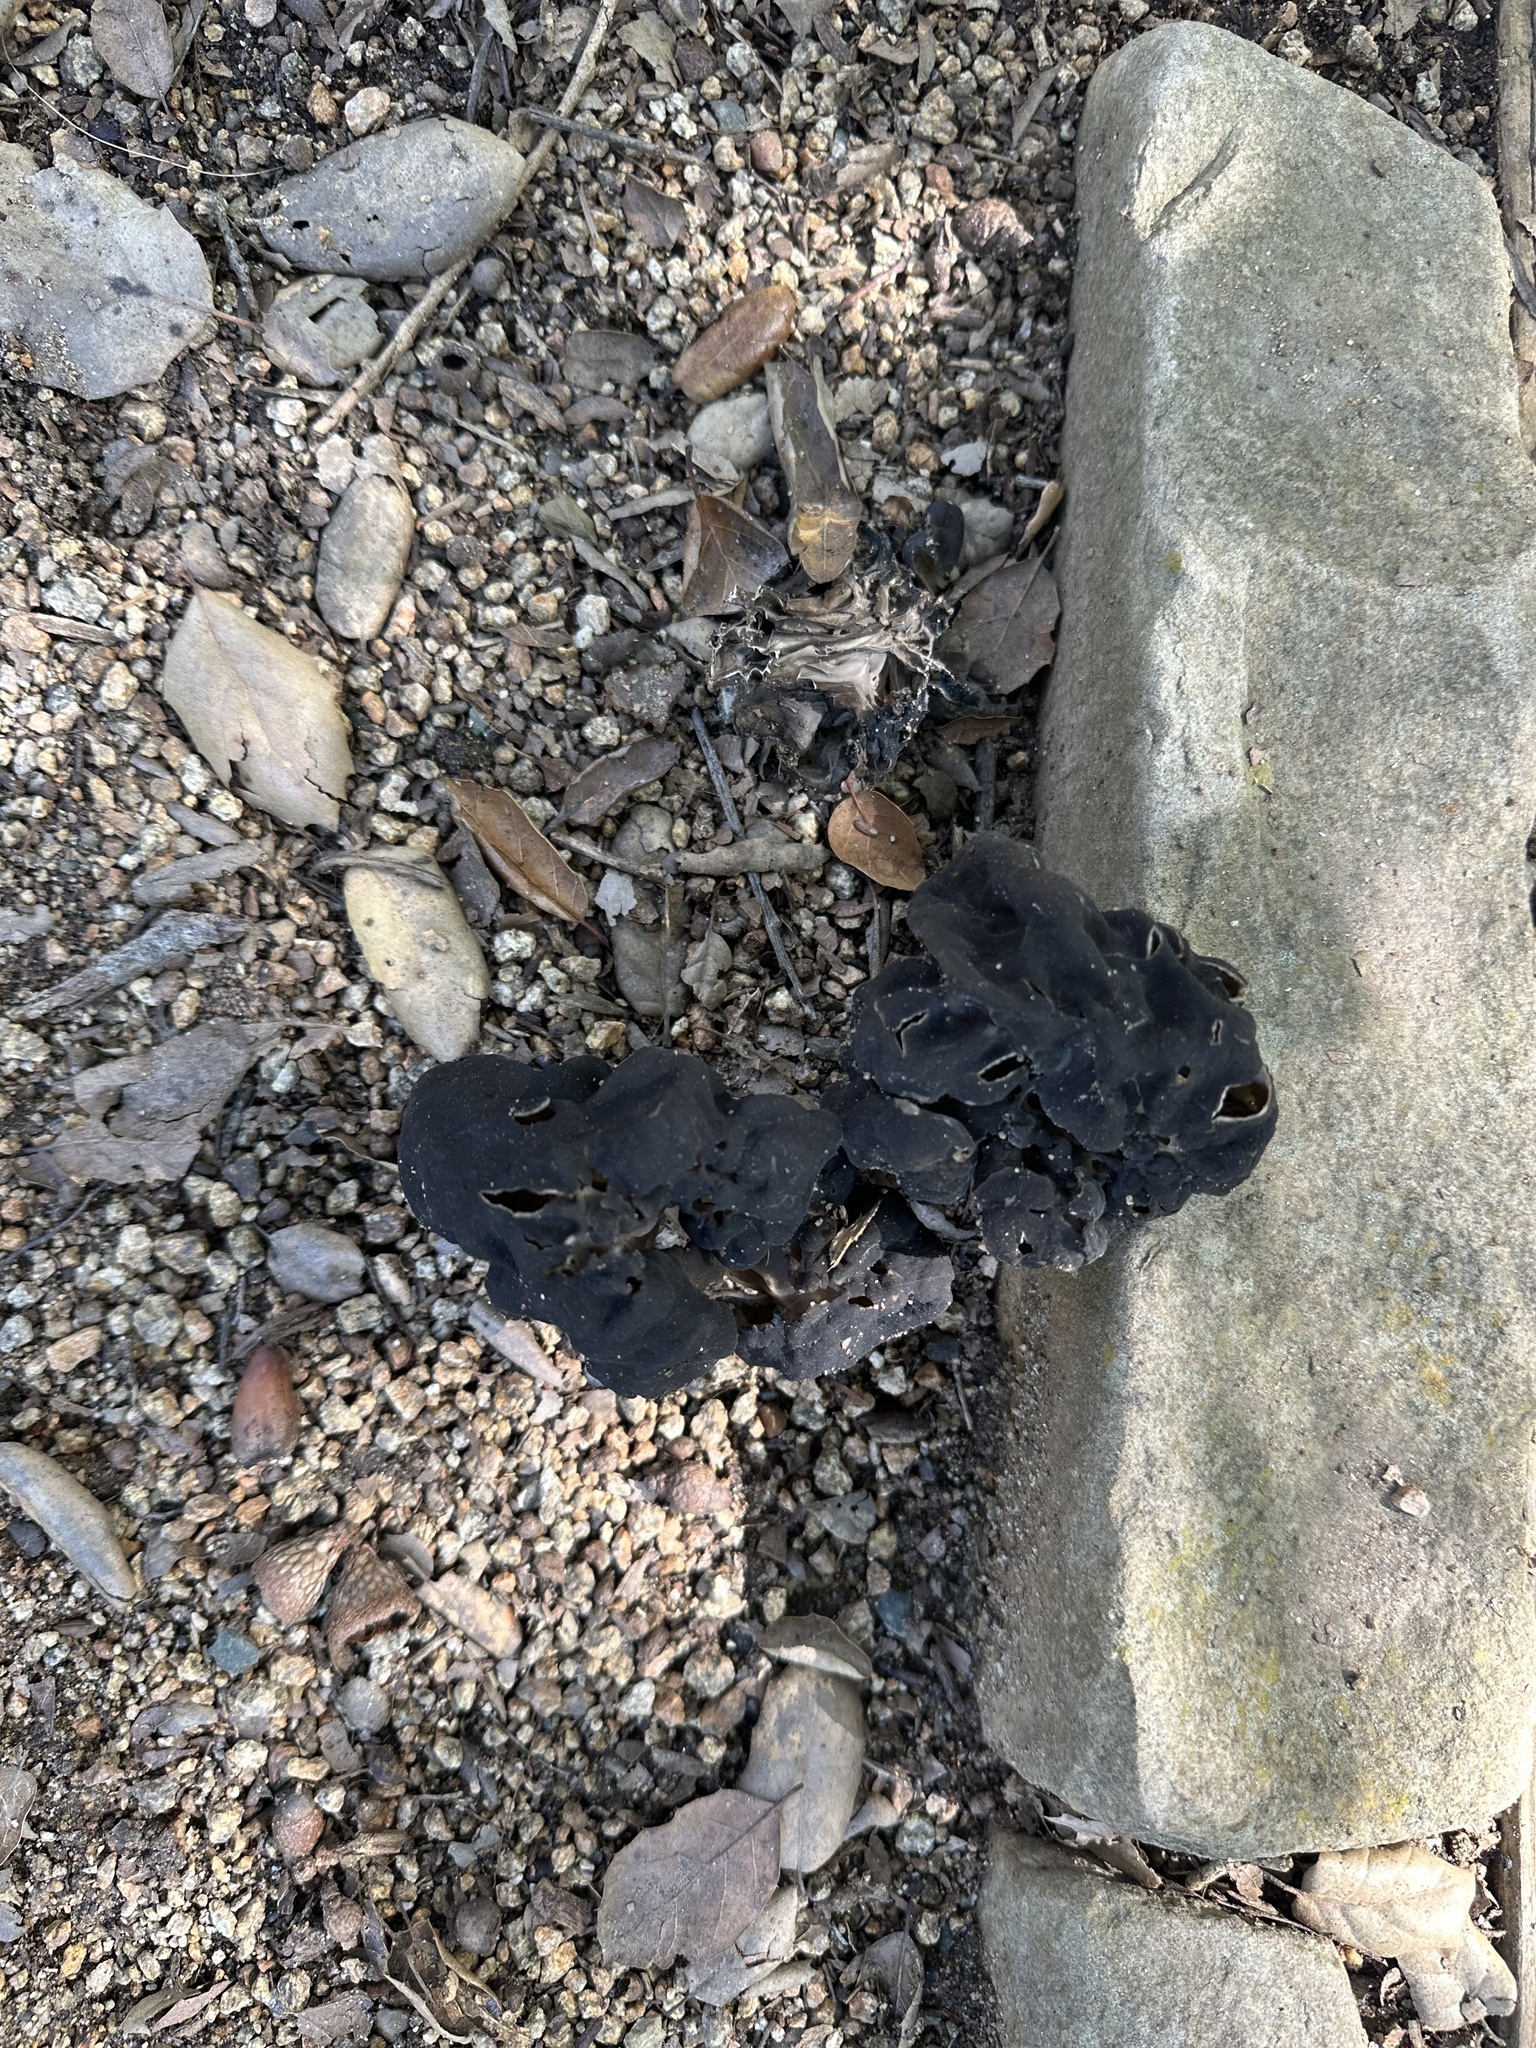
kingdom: Fungi
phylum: Ascomycota
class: Pezizomycetes
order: Pezizales
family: Helvellaceae
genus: Helvella
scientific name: Helvella dryophila
